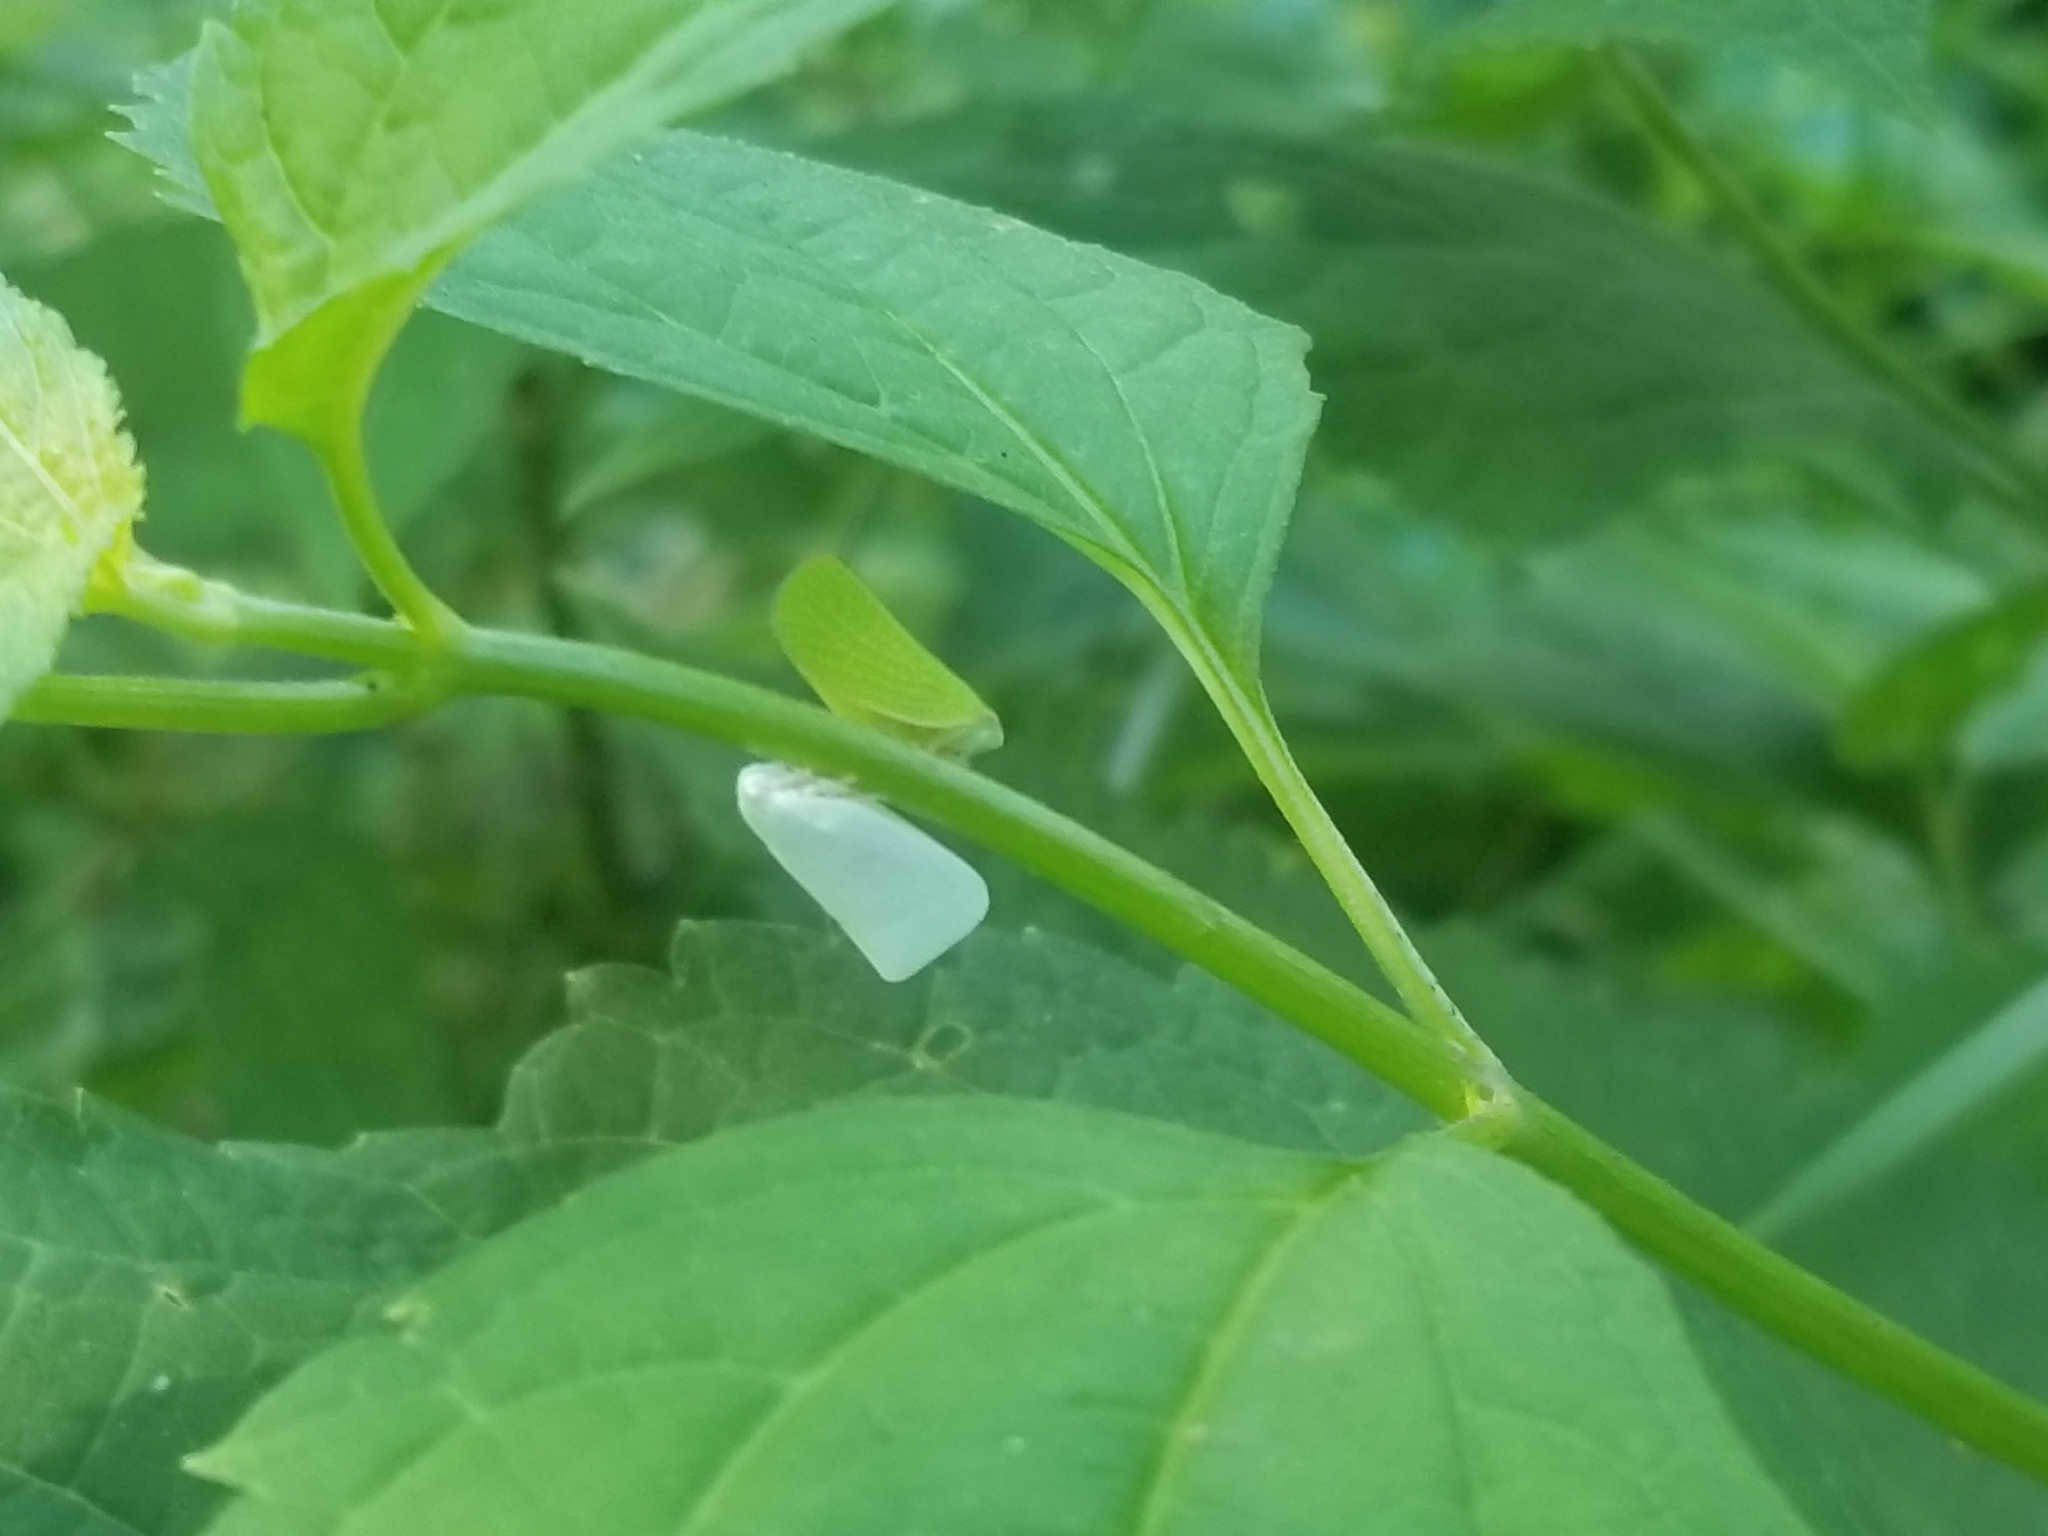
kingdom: Animalia
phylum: Arthropoda
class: Insecta
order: Hemiptera
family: Flatidae
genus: Flatormenis
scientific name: Flatormenis proxima
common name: Northern flatid planthopper
